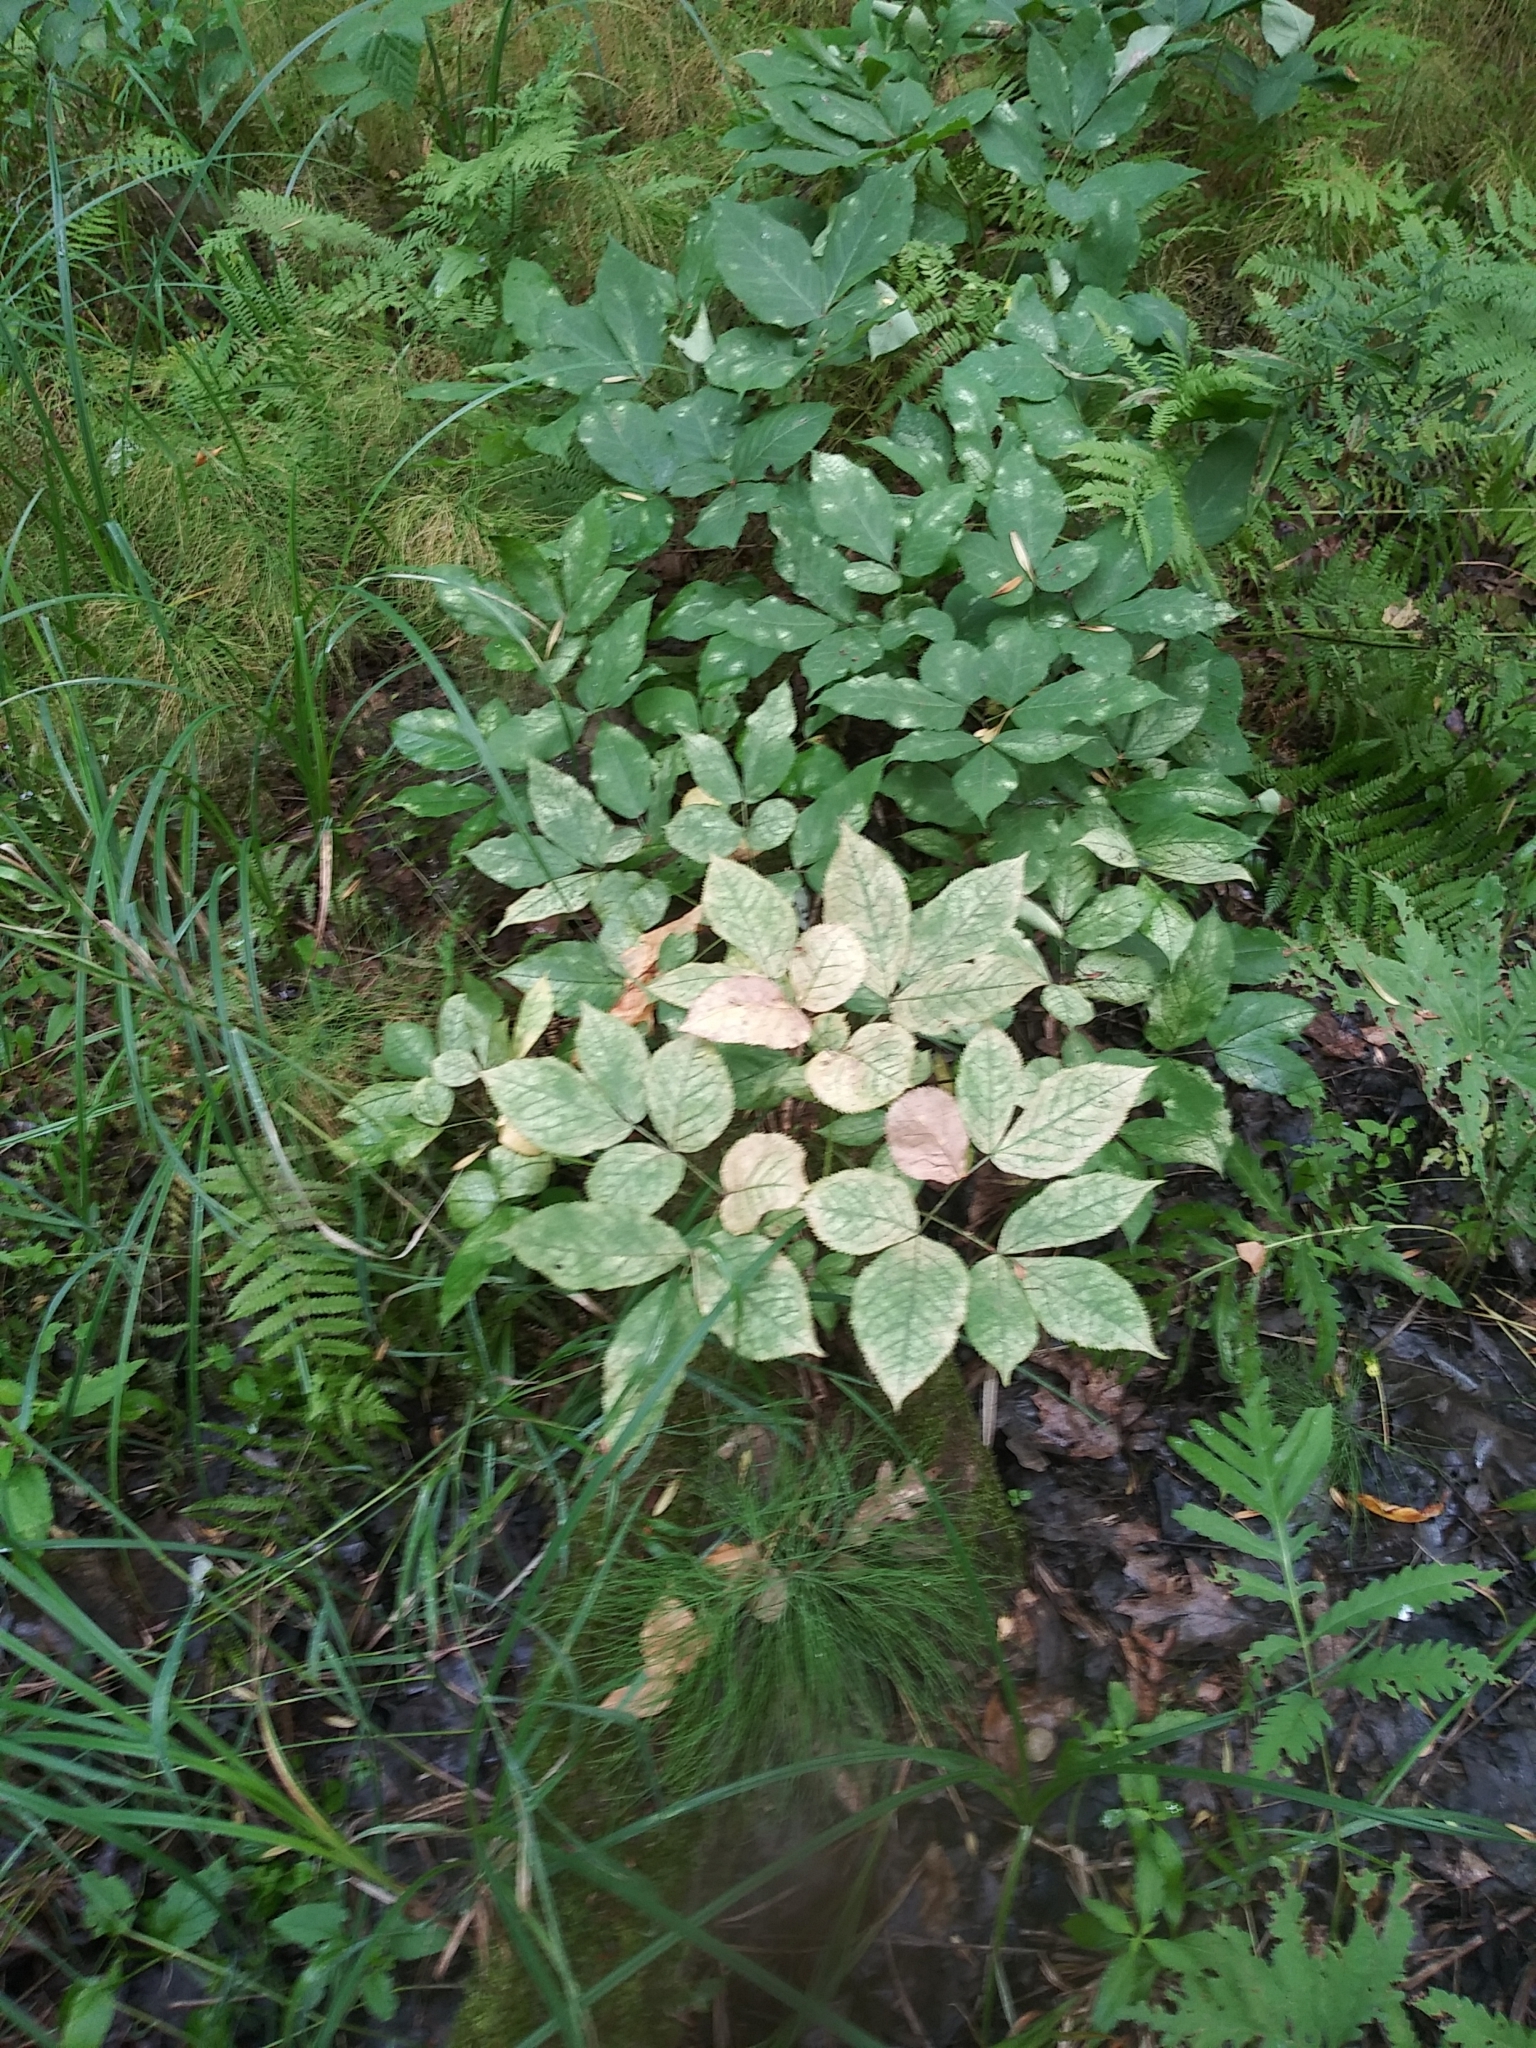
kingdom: Plantae
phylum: Tracheophyta
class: Magnoliopsida
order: Apiales
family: Araliaceae
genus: Aralia
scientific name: Aralia nudicaulis
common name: Wild sarsaparilla
